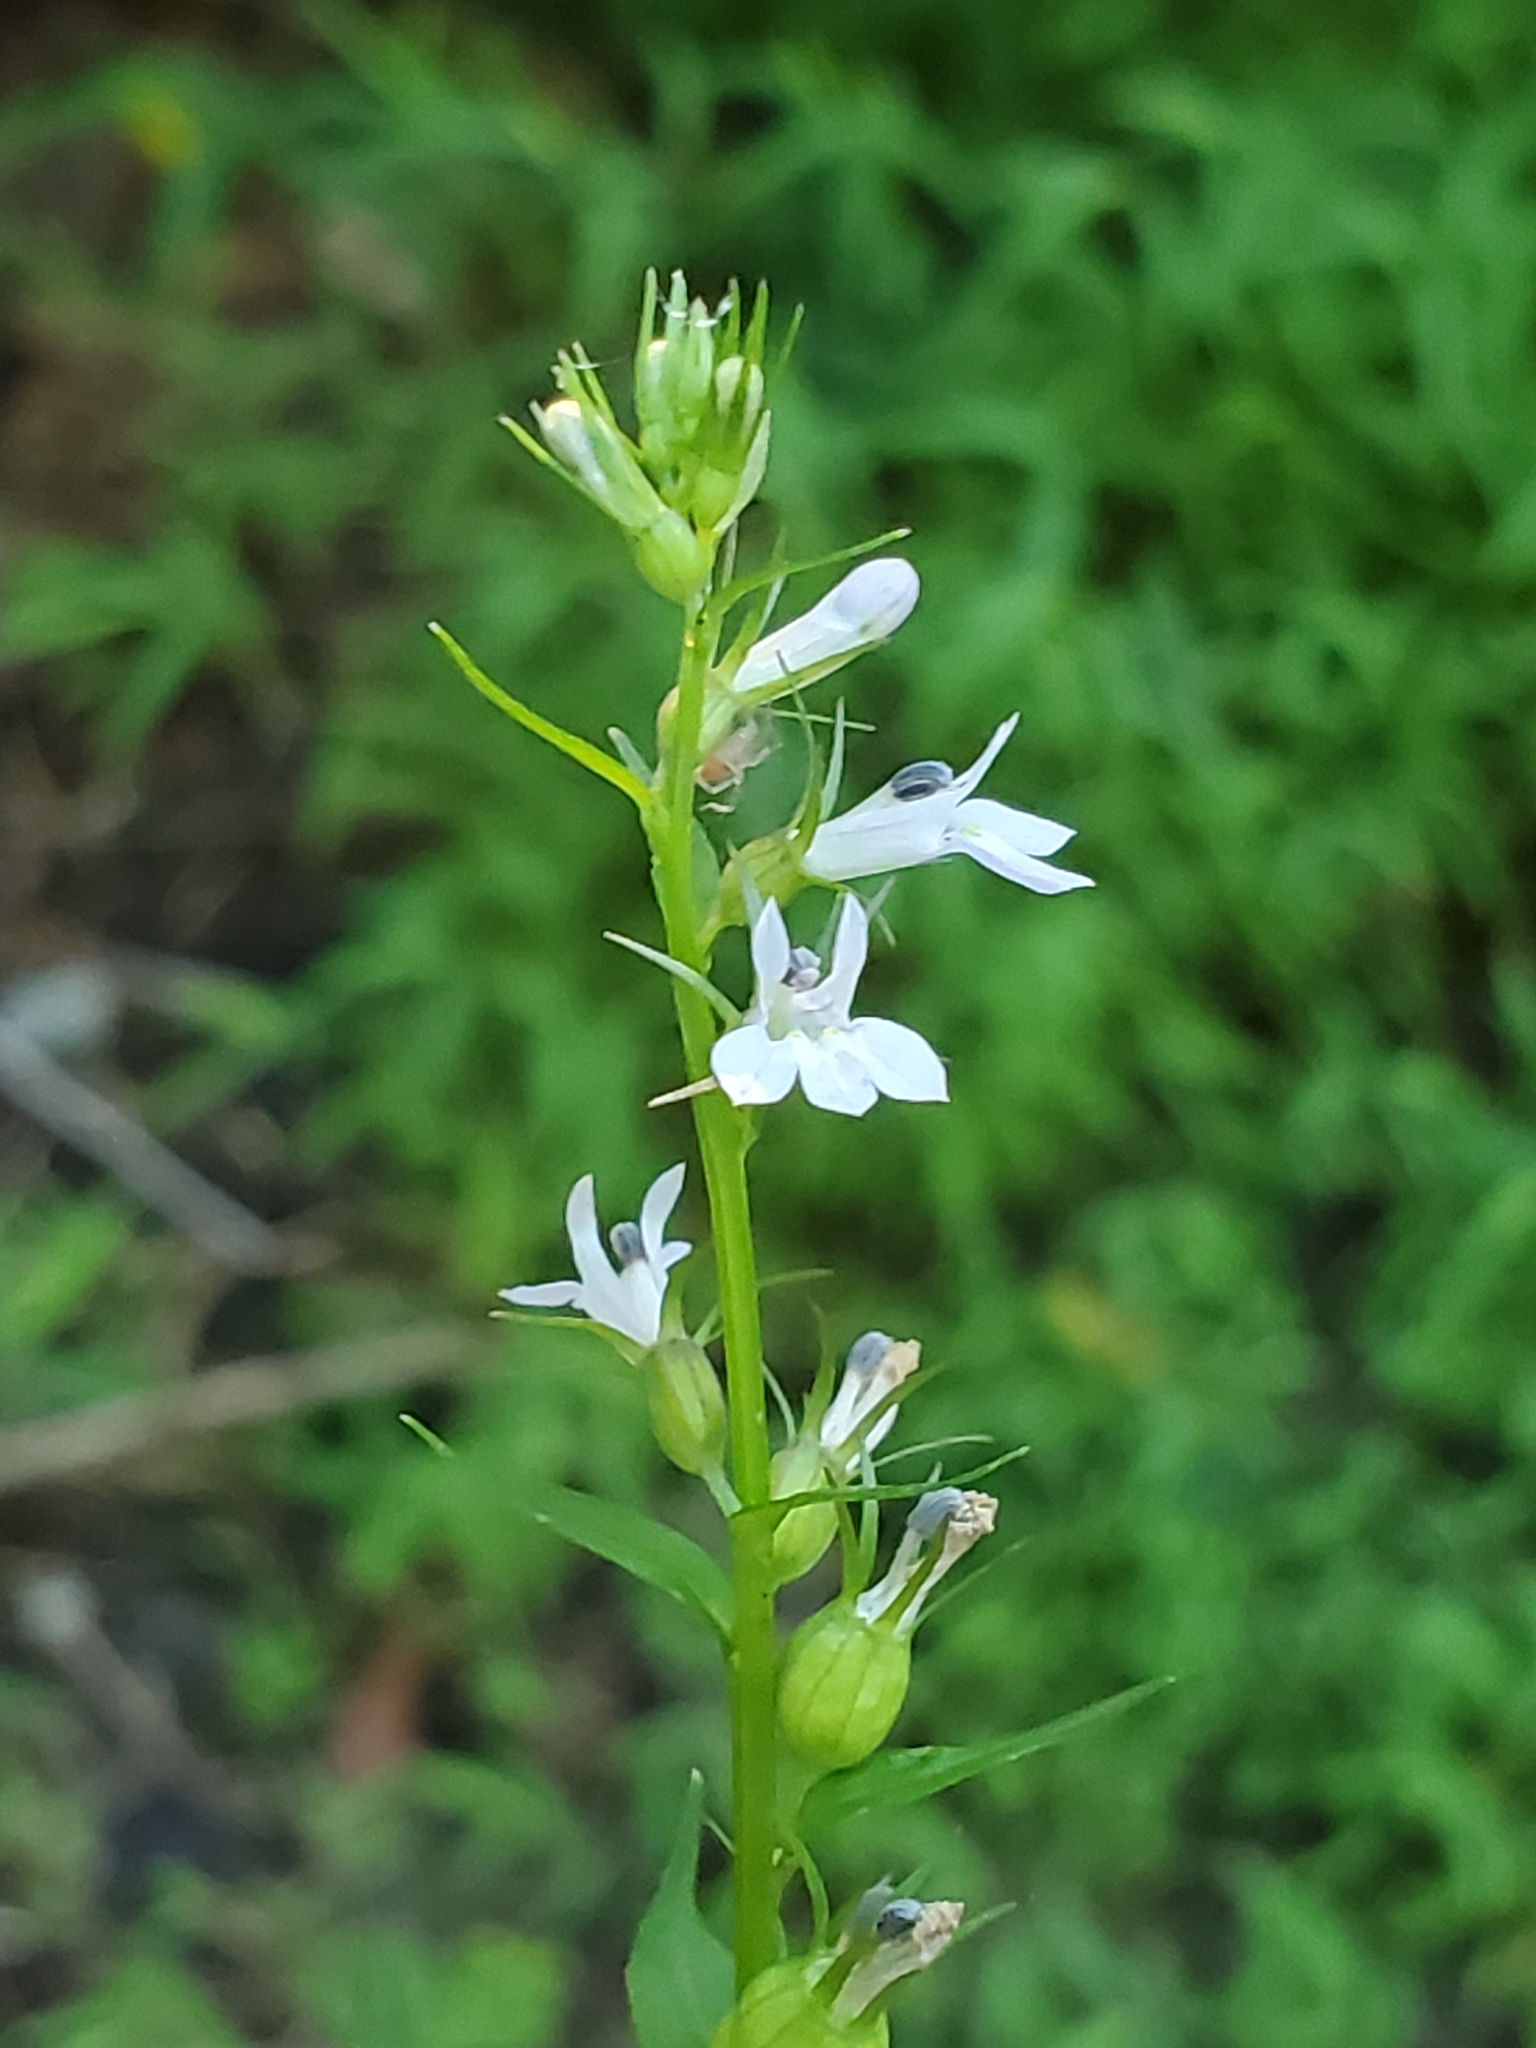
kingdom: Plantae
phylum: Tracheophyta
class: Magnoliopsida
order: Asterales
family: Campanulaceae
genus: Lobelia
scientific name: Lobelia inflata
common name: Indian tobacco
